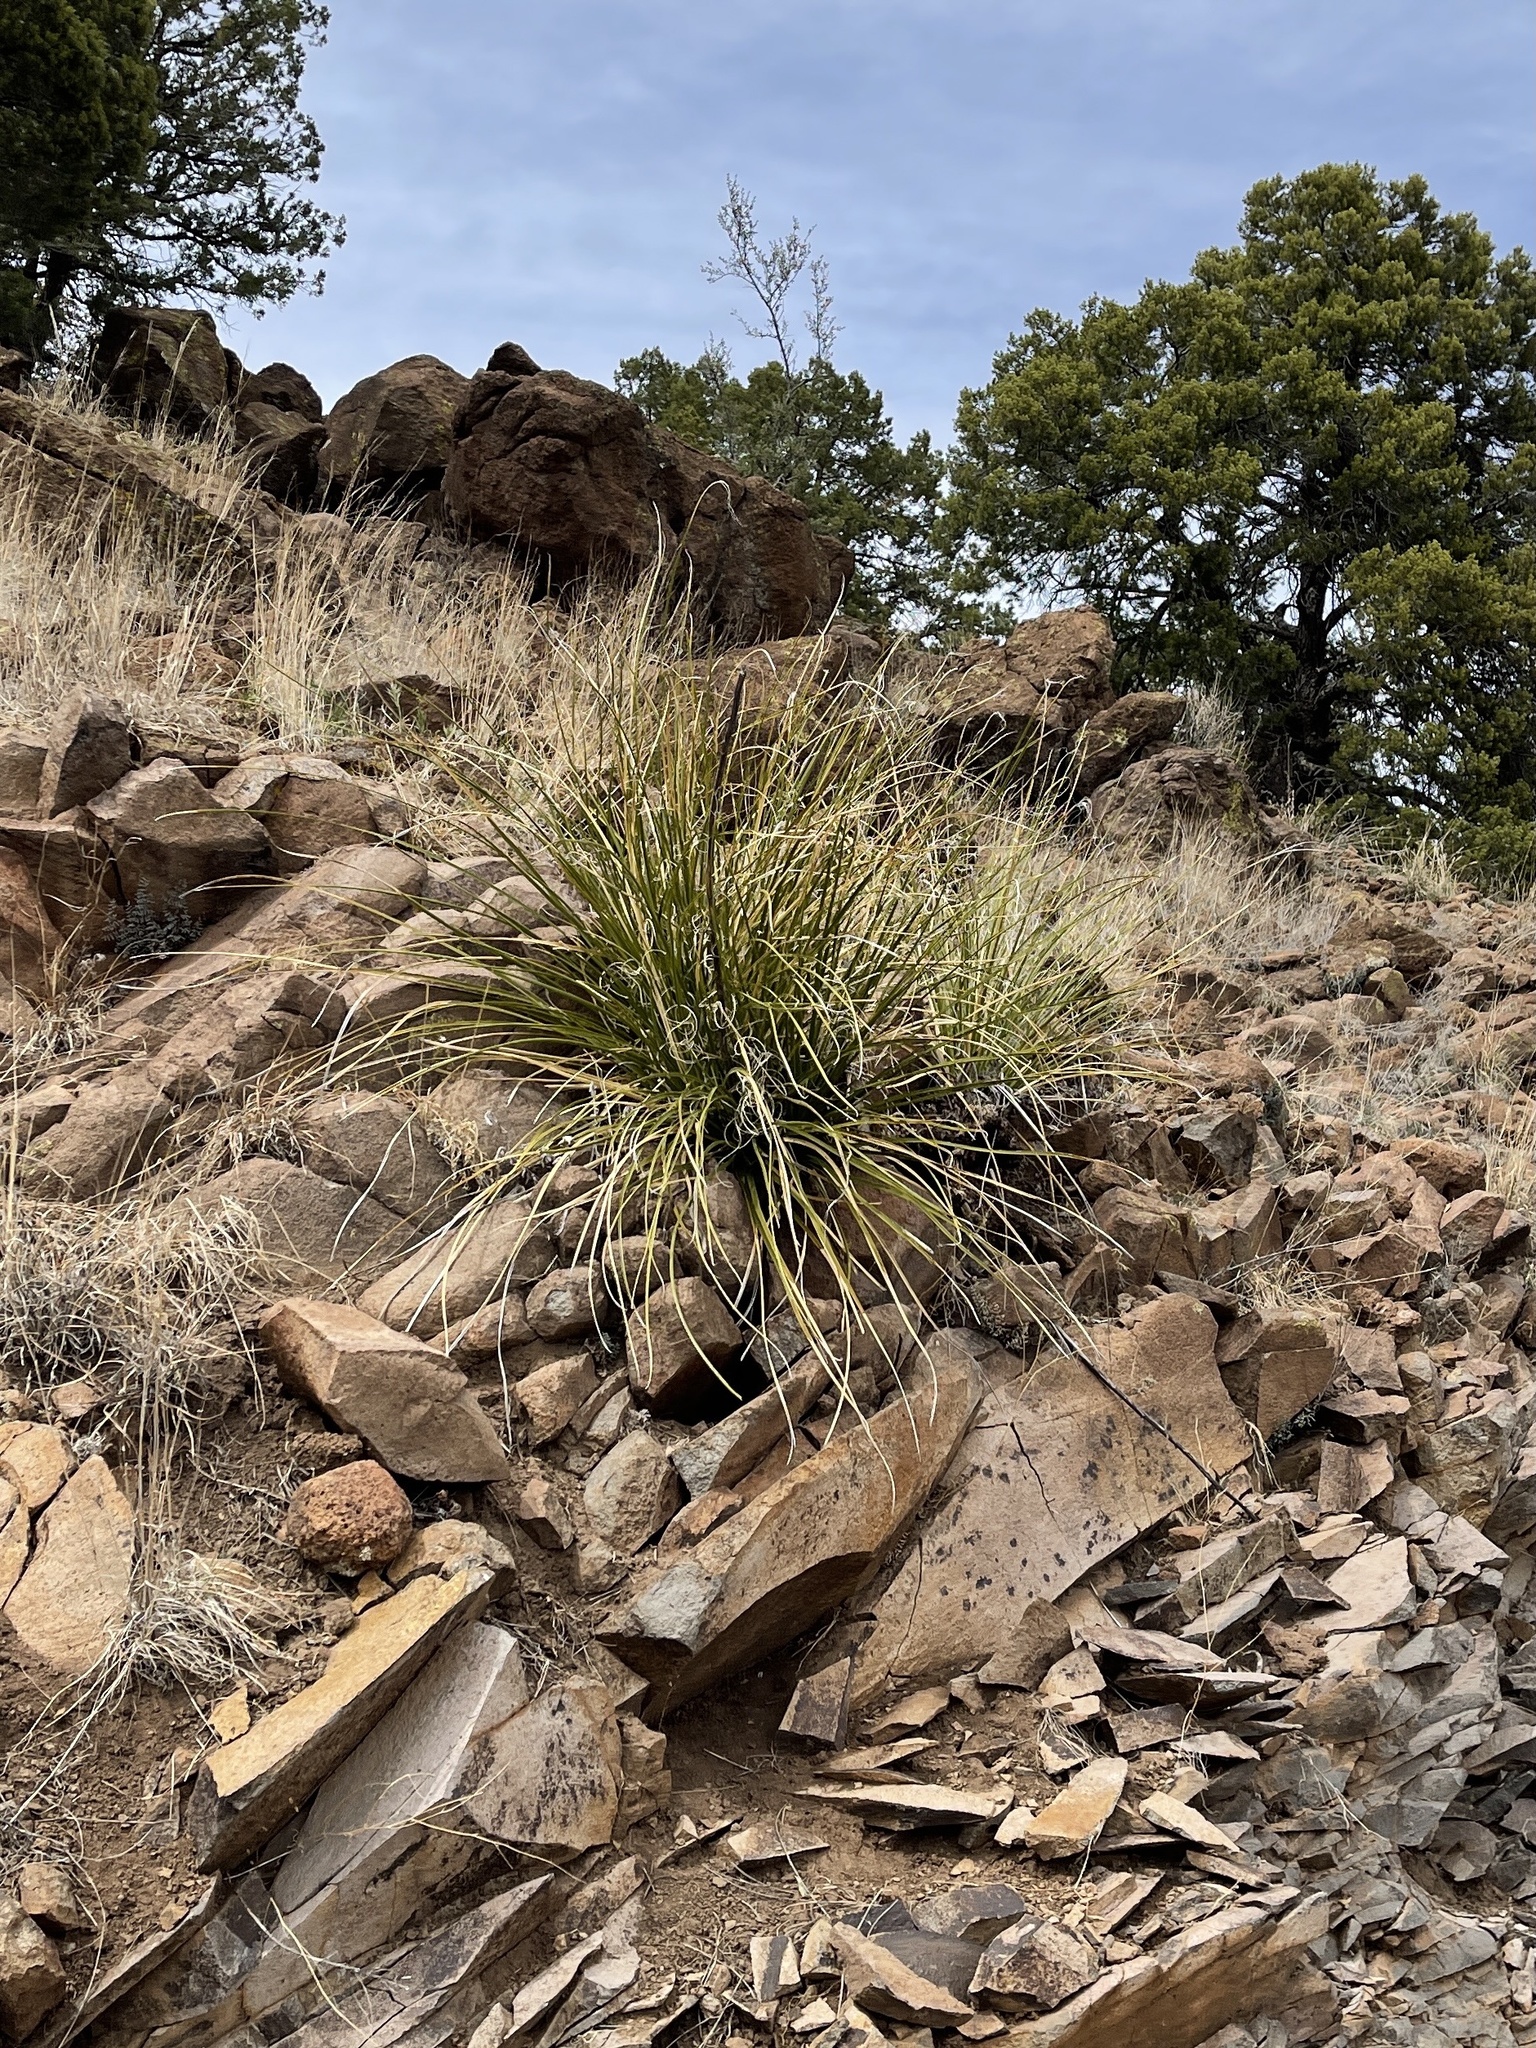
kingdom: Plantae
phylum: Tracheophyta
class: Liliopsida
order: Asparagales
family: Asparagaceae
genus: Nolina
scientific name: Nolina microcarpa
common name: Bear-grass
